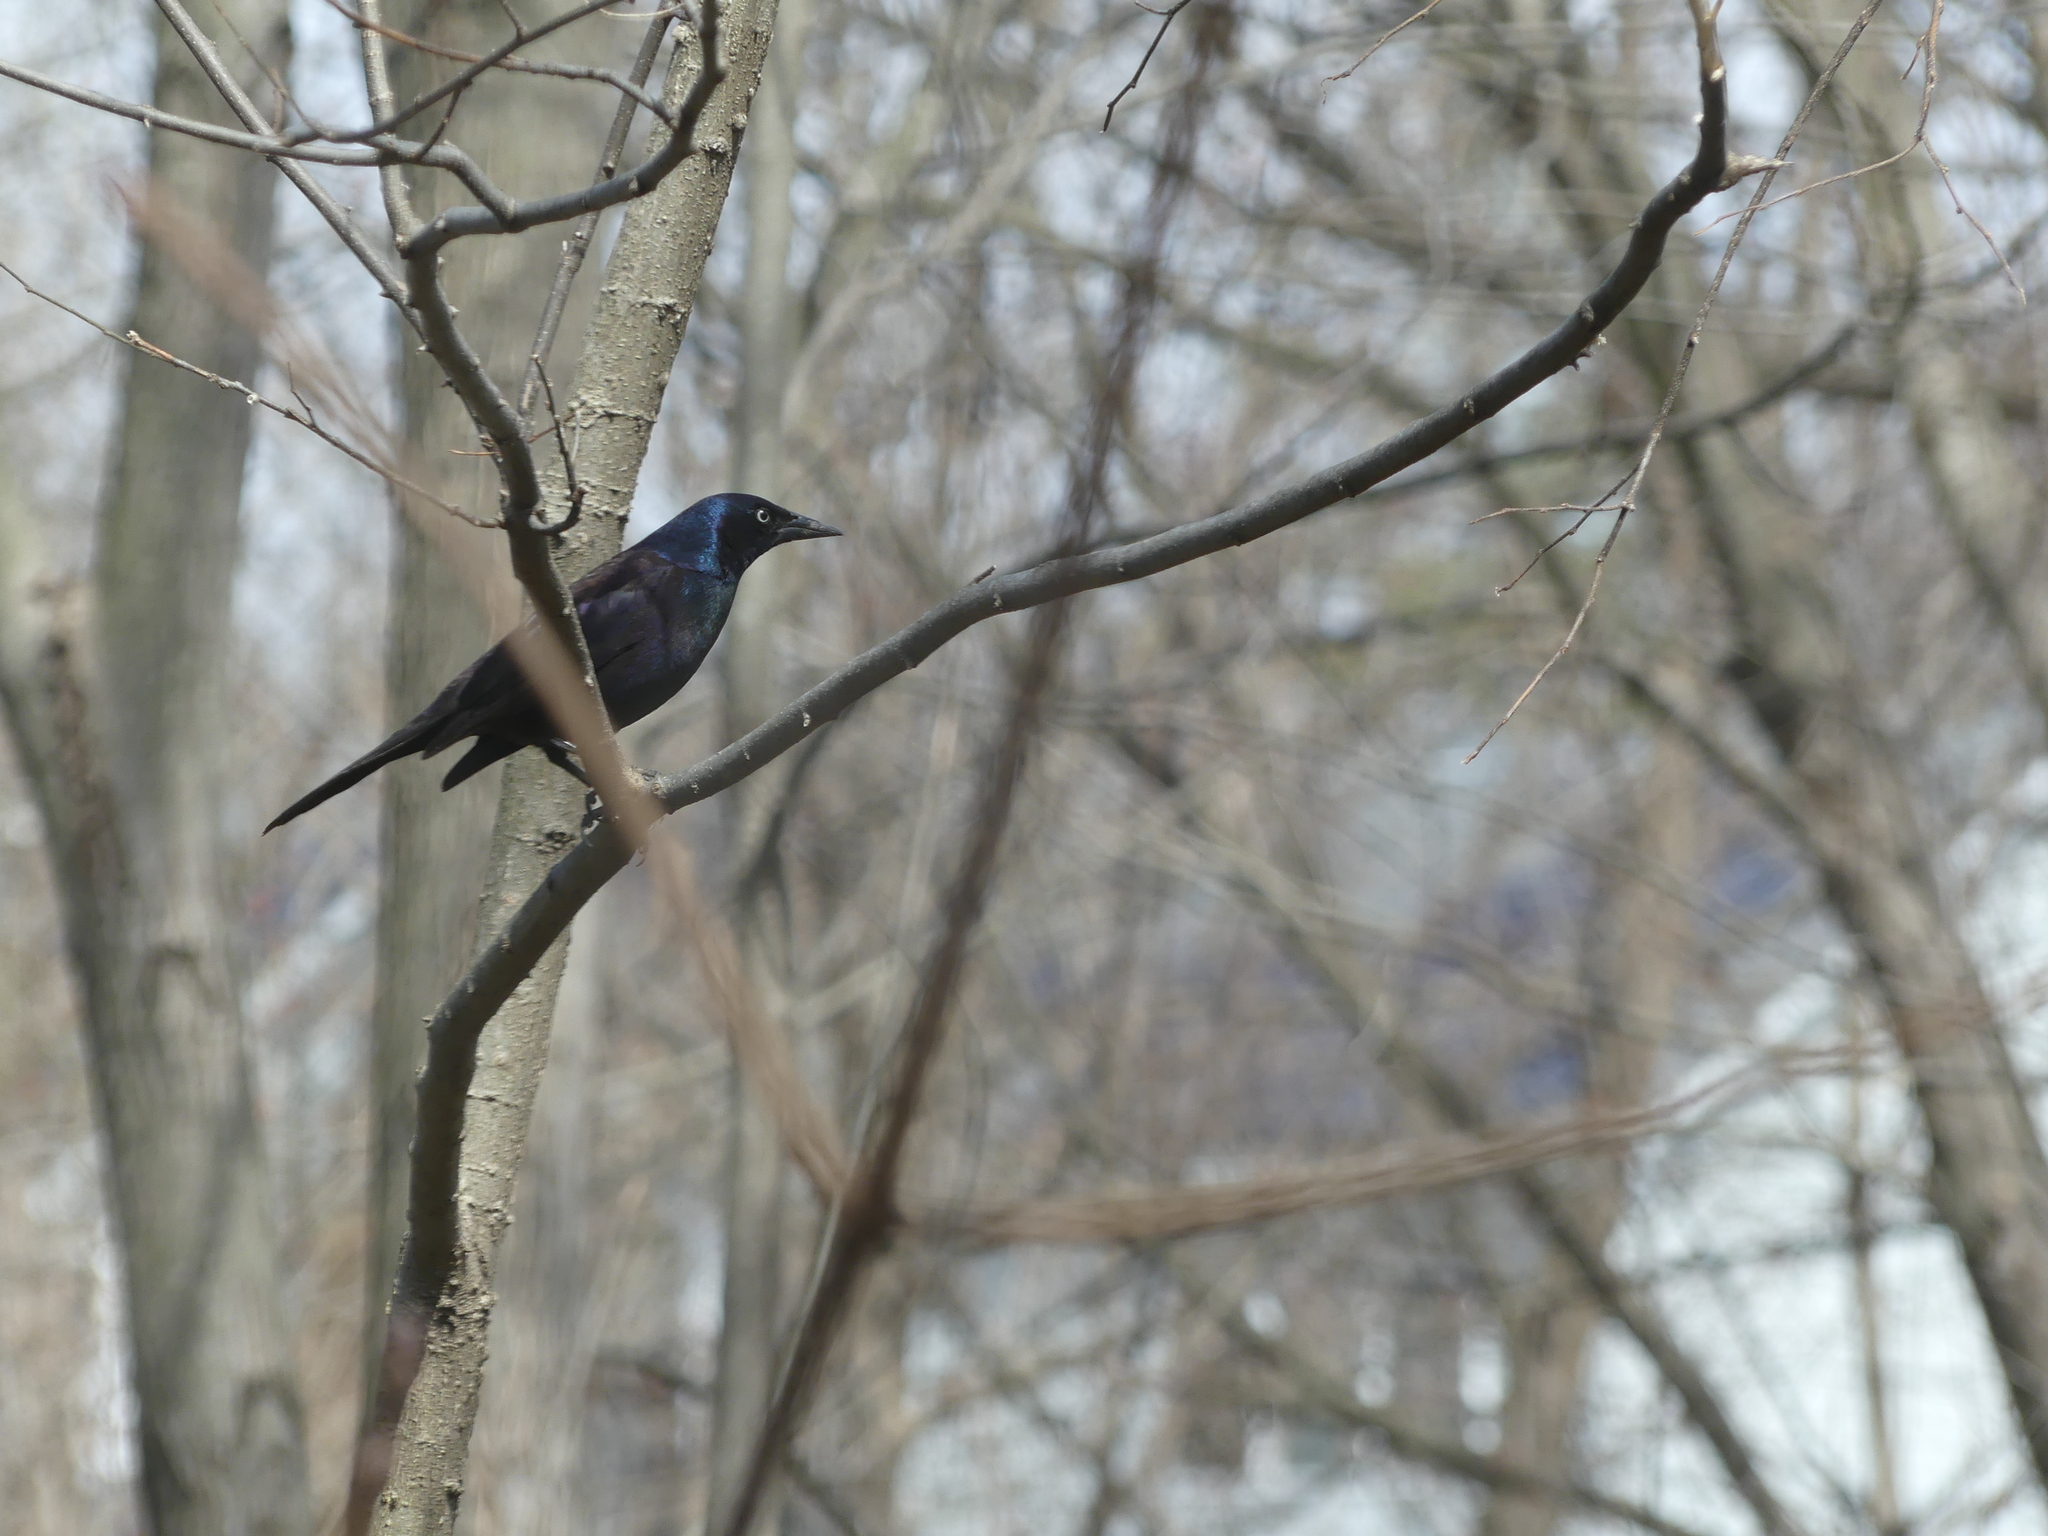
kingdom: Animalia
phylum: Chordata
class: Aves
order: Passeriformes
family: Icteridae
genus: Quiscalus
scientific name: Quiscalus quiscula
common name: Common grackle
